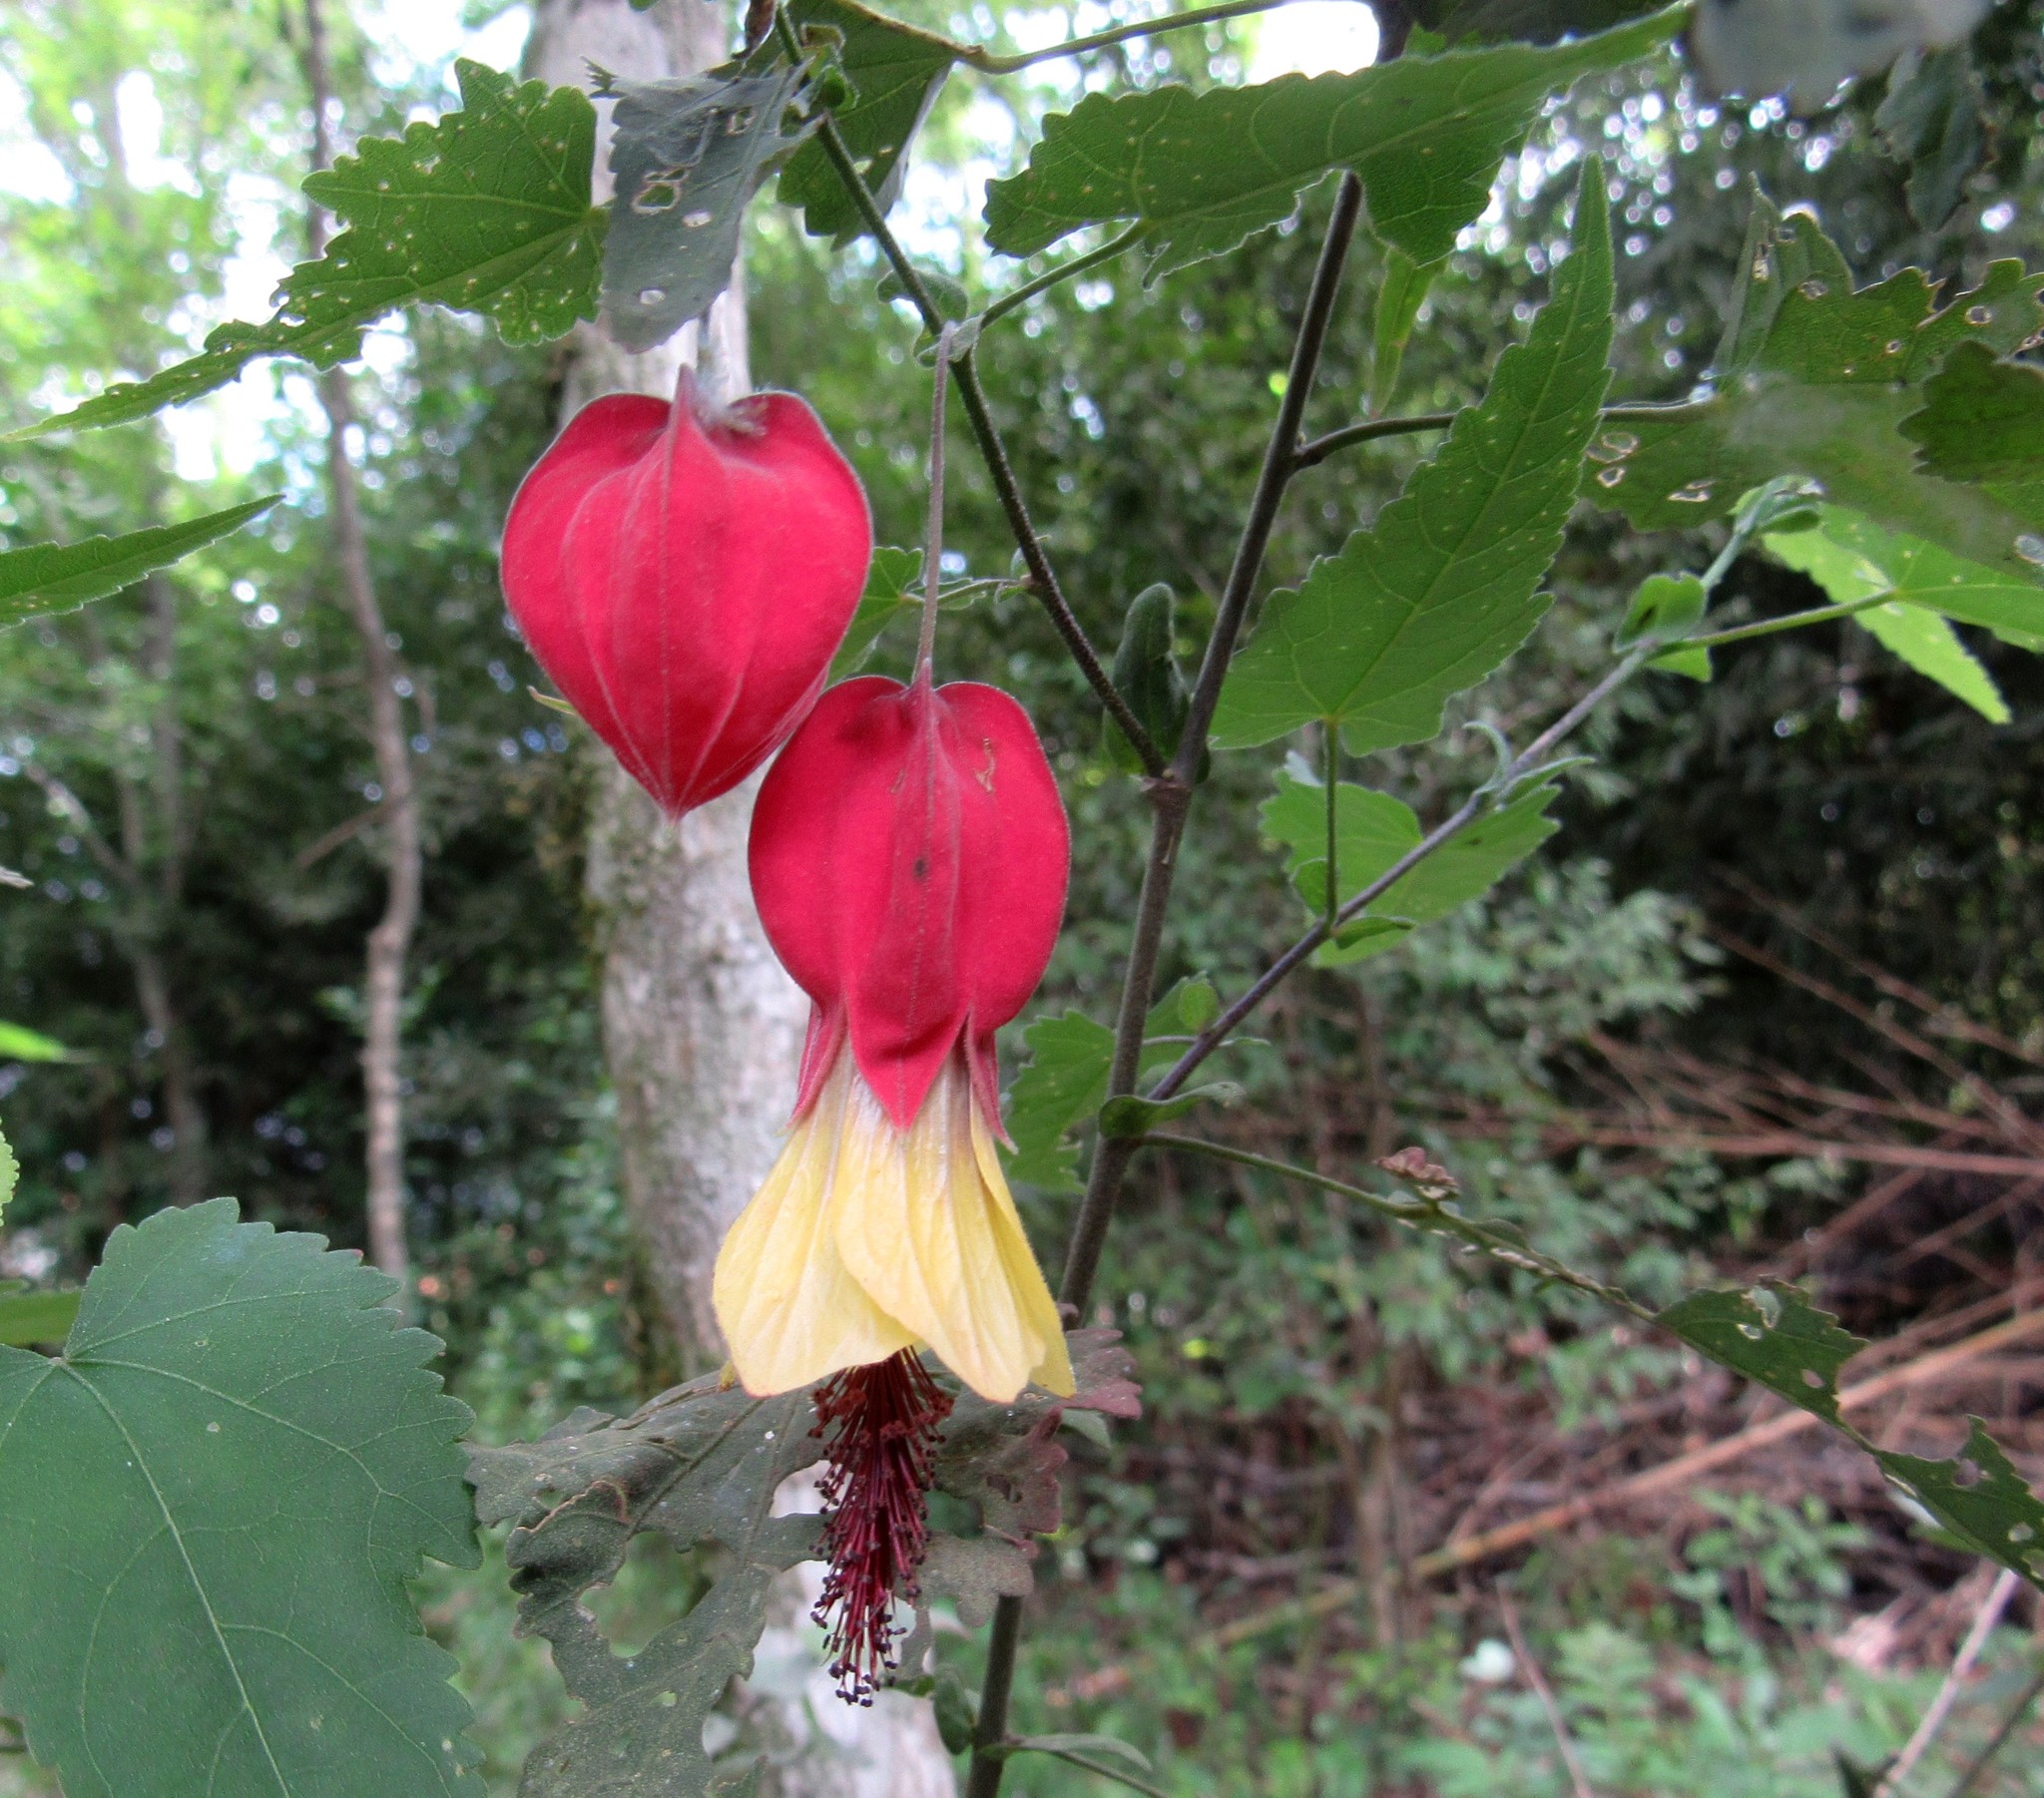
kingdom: Plantae
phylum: Tracheophyta
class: Magnoliopsida
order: Malvales
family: Malvaceae
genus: Callianthe
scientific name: Callianthe vexillaria
